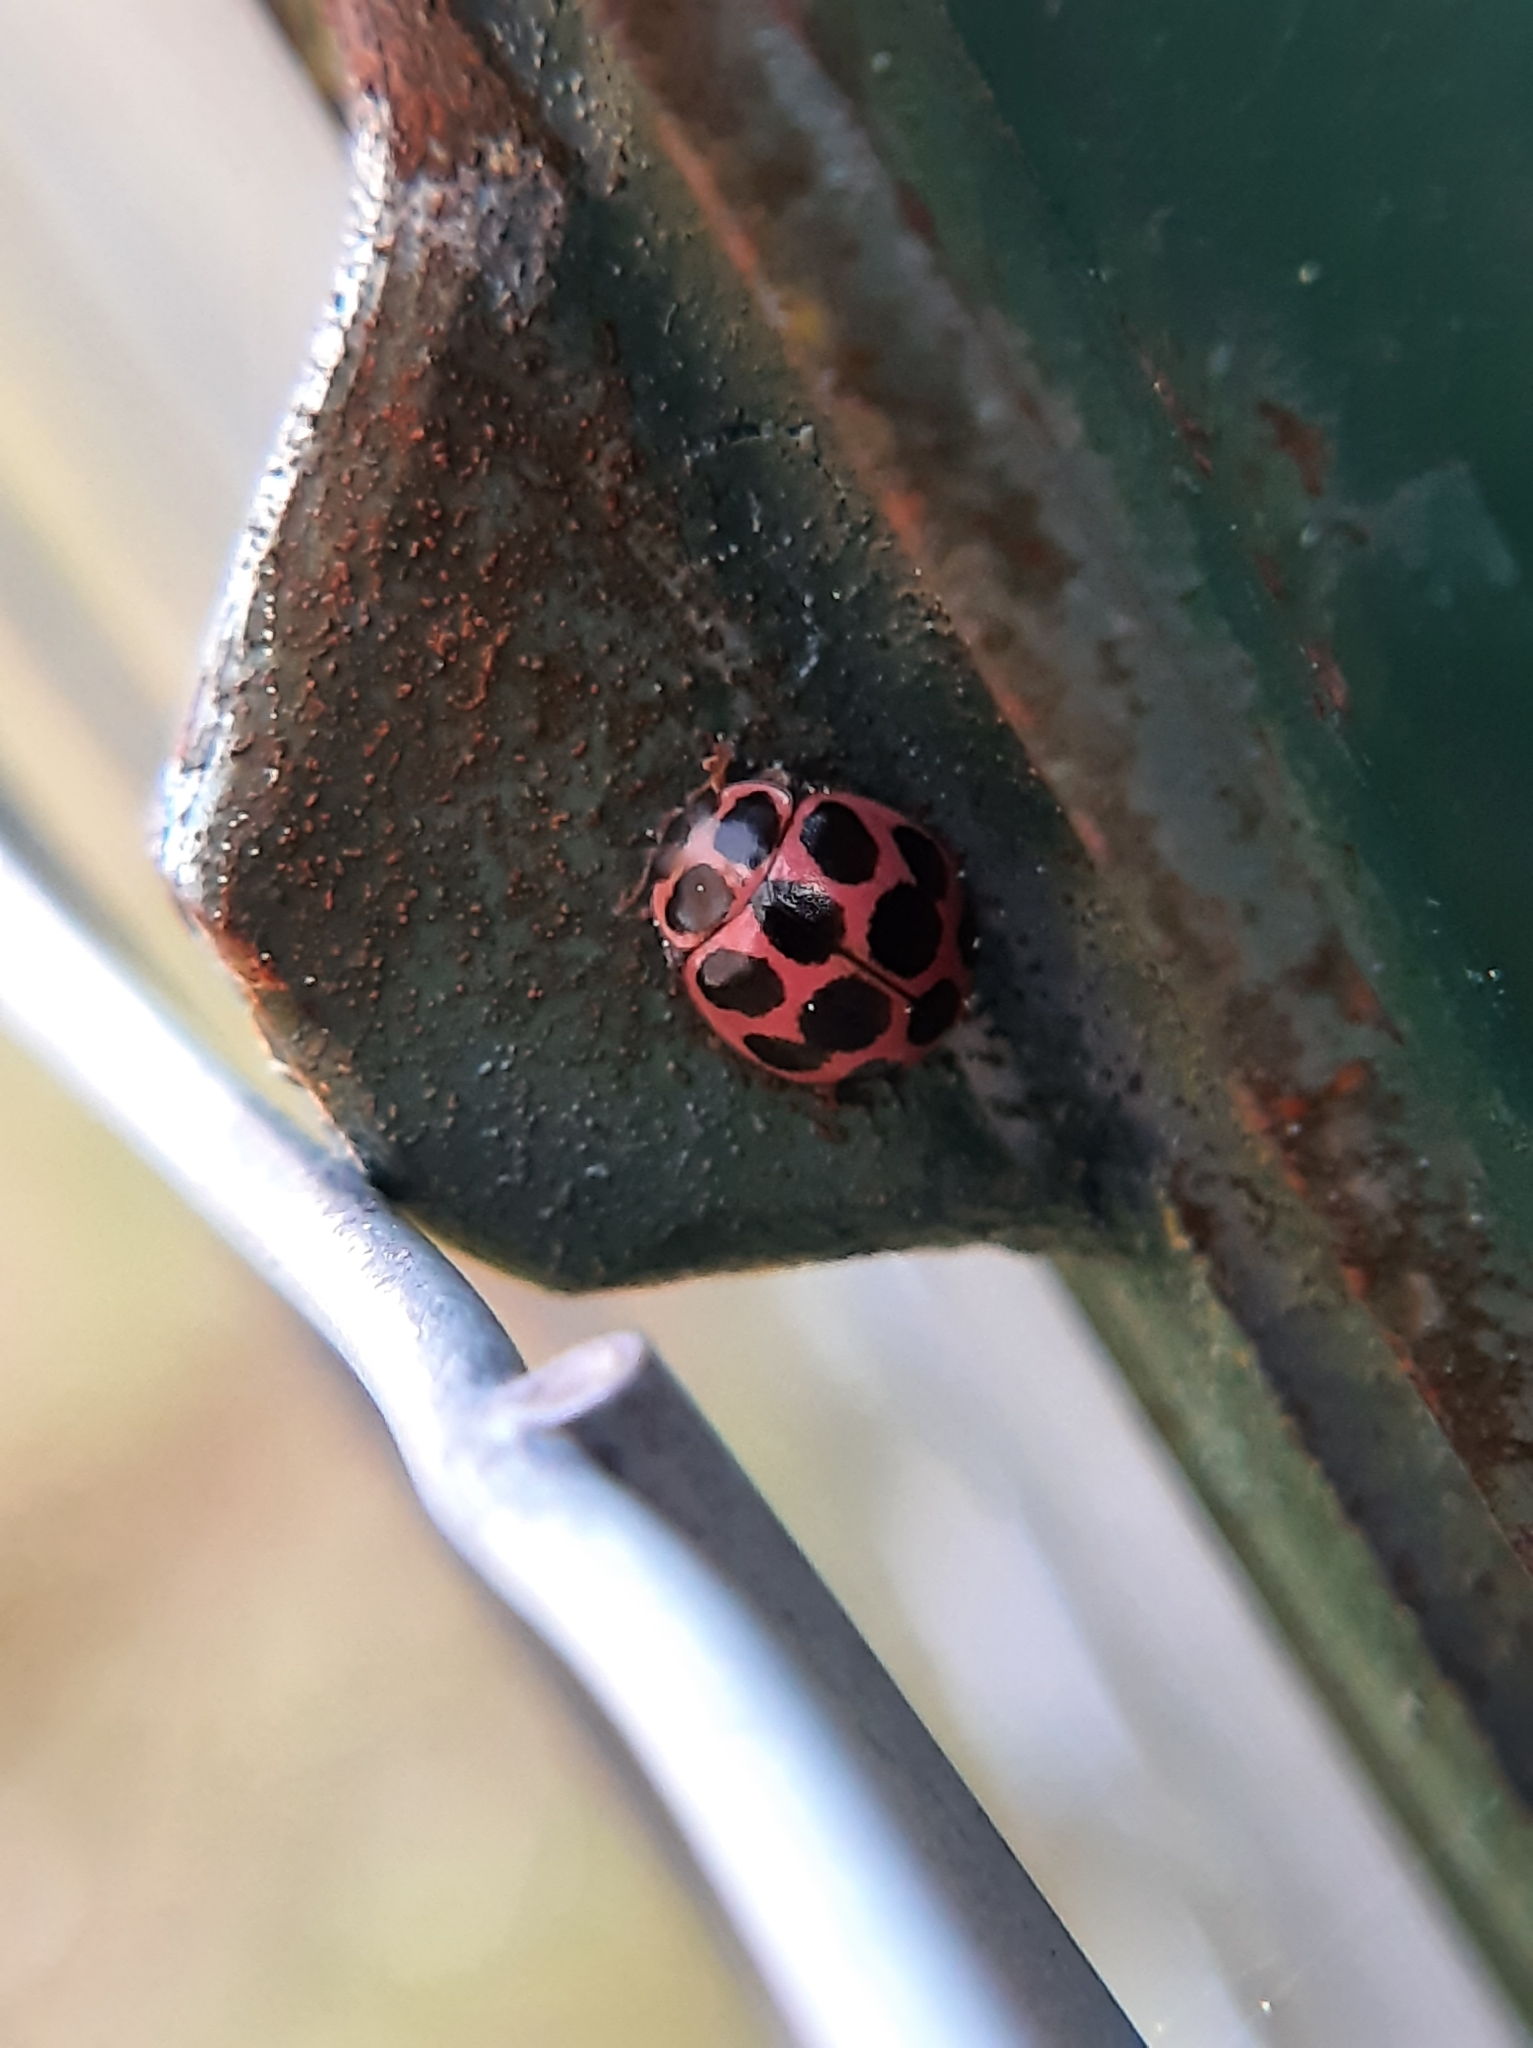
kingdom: Animalia
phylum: Arthropoda
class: Insecta
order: Coleoptera
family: Coccinellidae
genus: Calvia
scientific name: Calvia quatuordecimguttata
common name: Cream-spot ladybird
